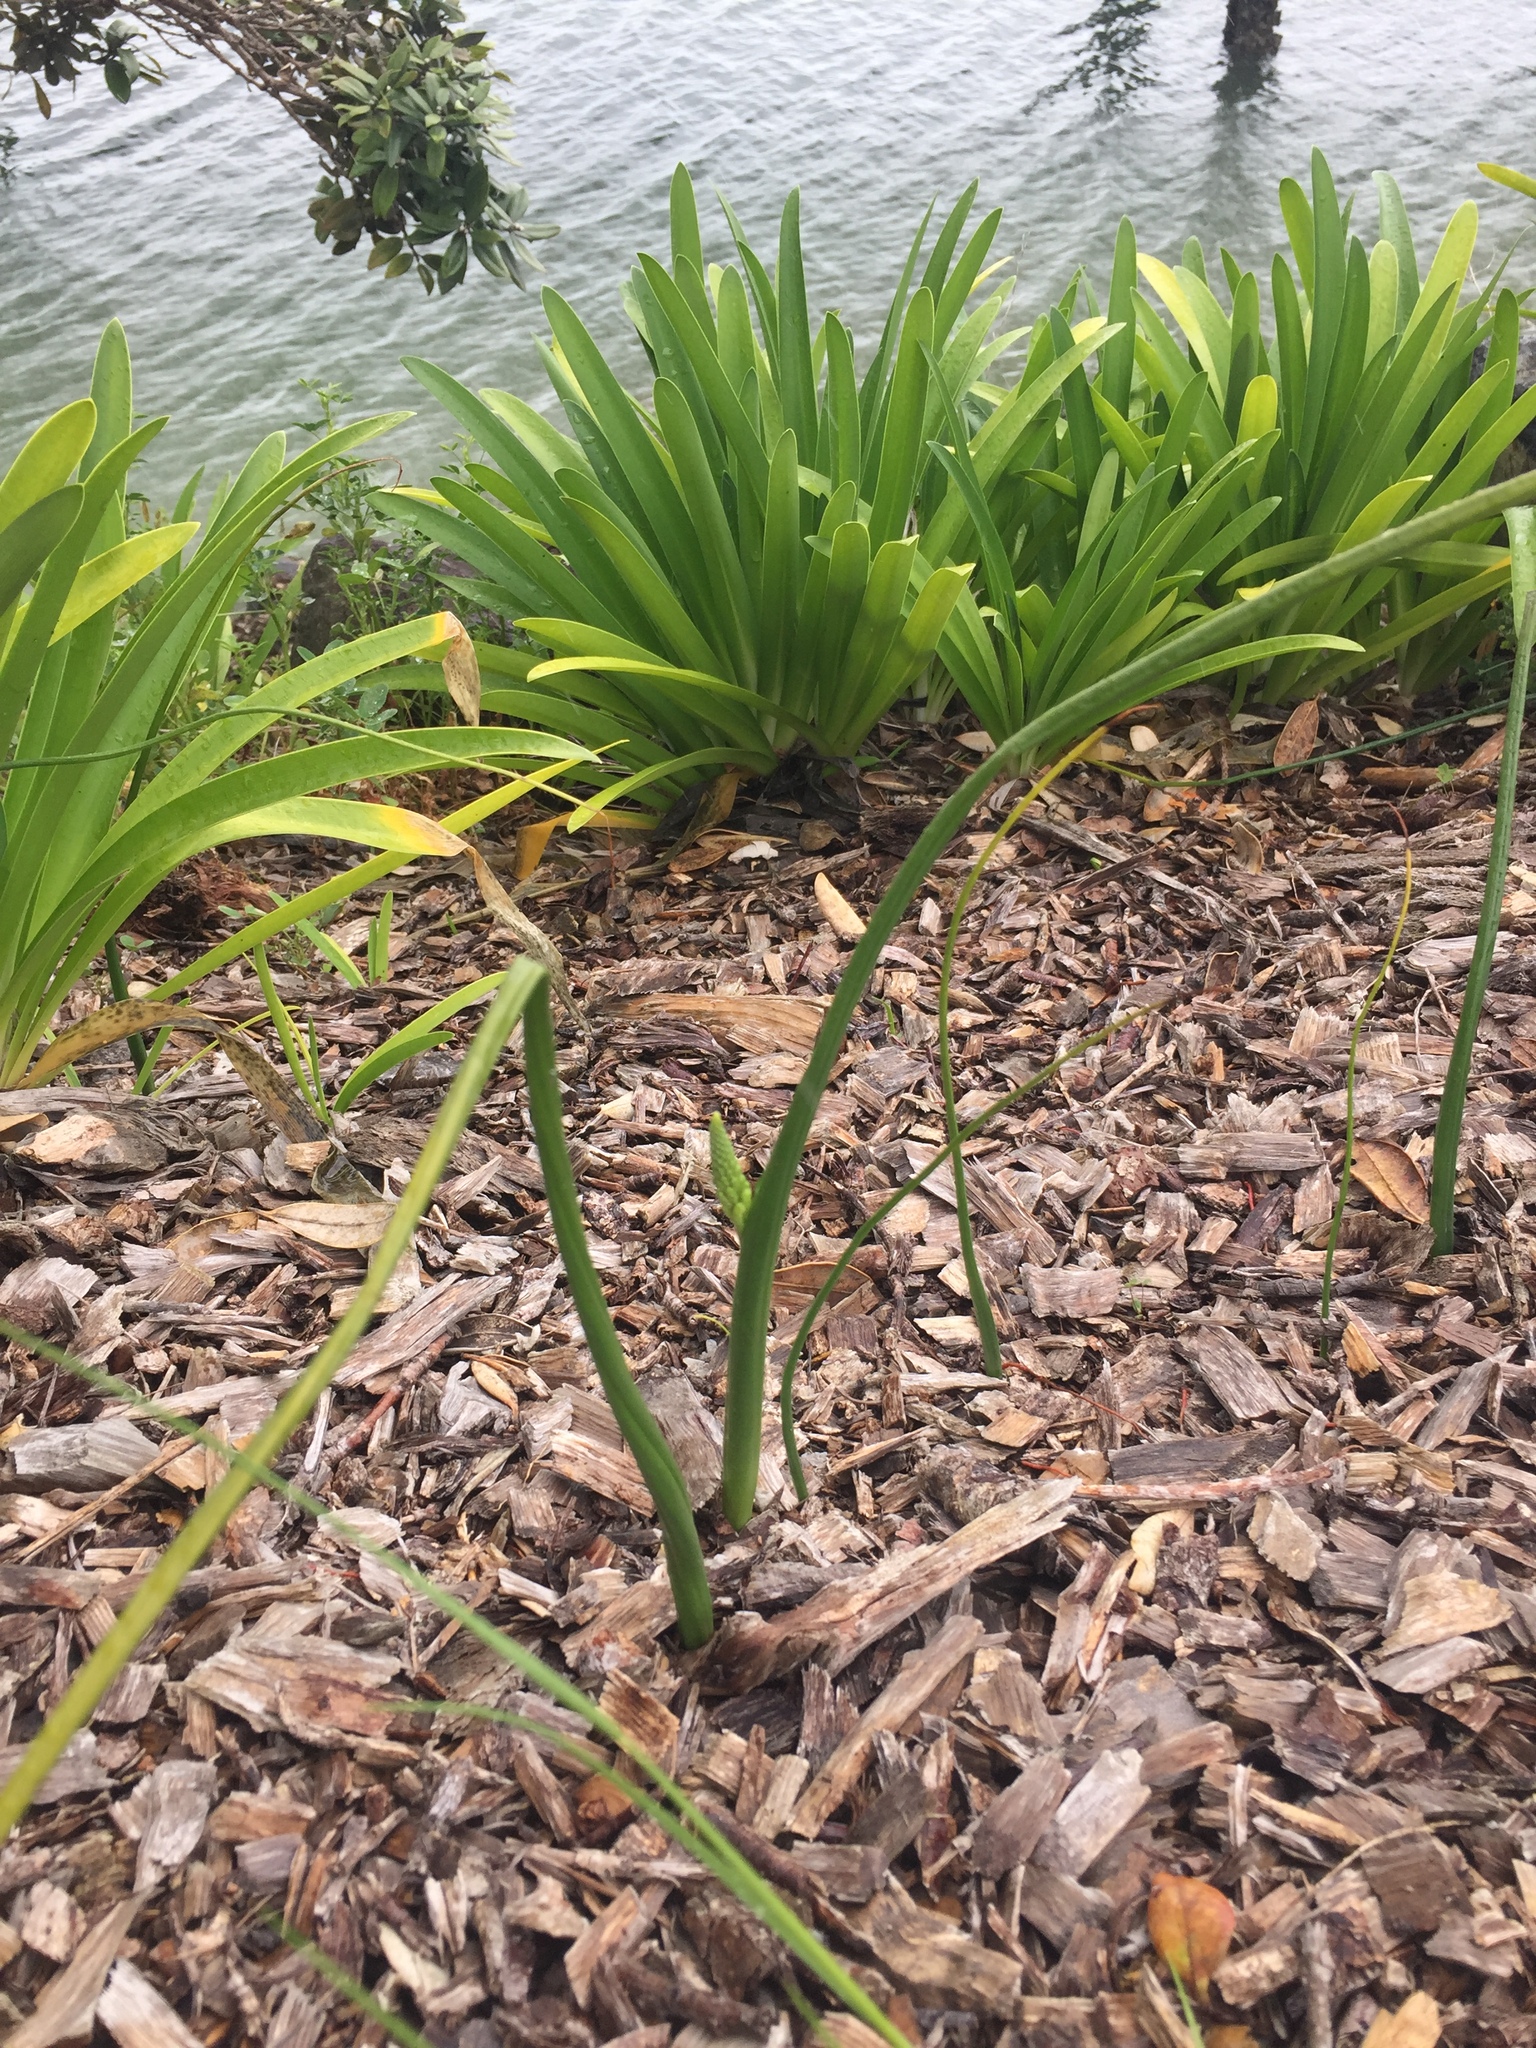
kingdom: Plantae
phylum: Tracheophyta
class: Liliopsida
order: Asparagales
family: Orchidaceae
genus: Microtis
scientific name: Microtis unifolia
